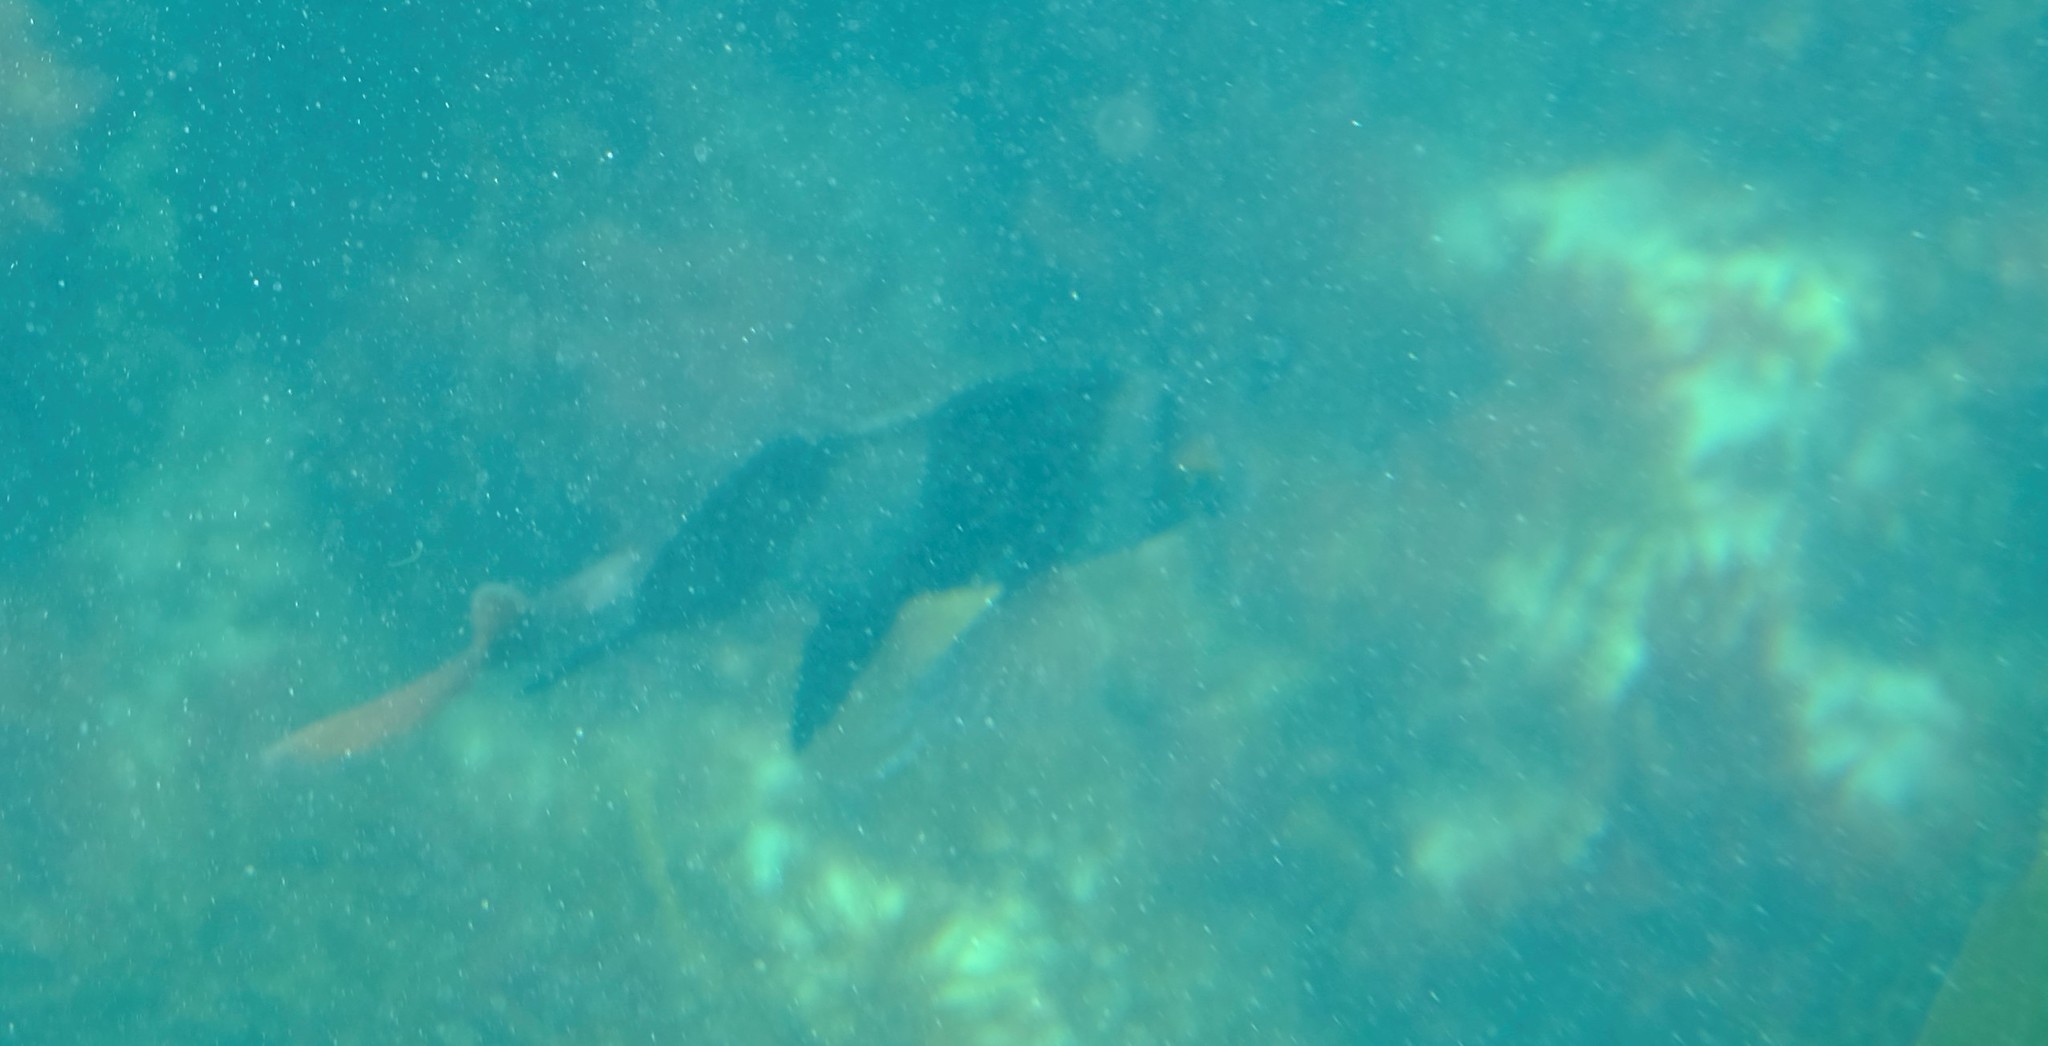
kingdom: Animalia
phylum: Chordata
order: Perciformes
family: Latridae
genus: Pseudogoniistius
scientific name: Pseudogoniistius nigripes
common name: Black-striped morwong
